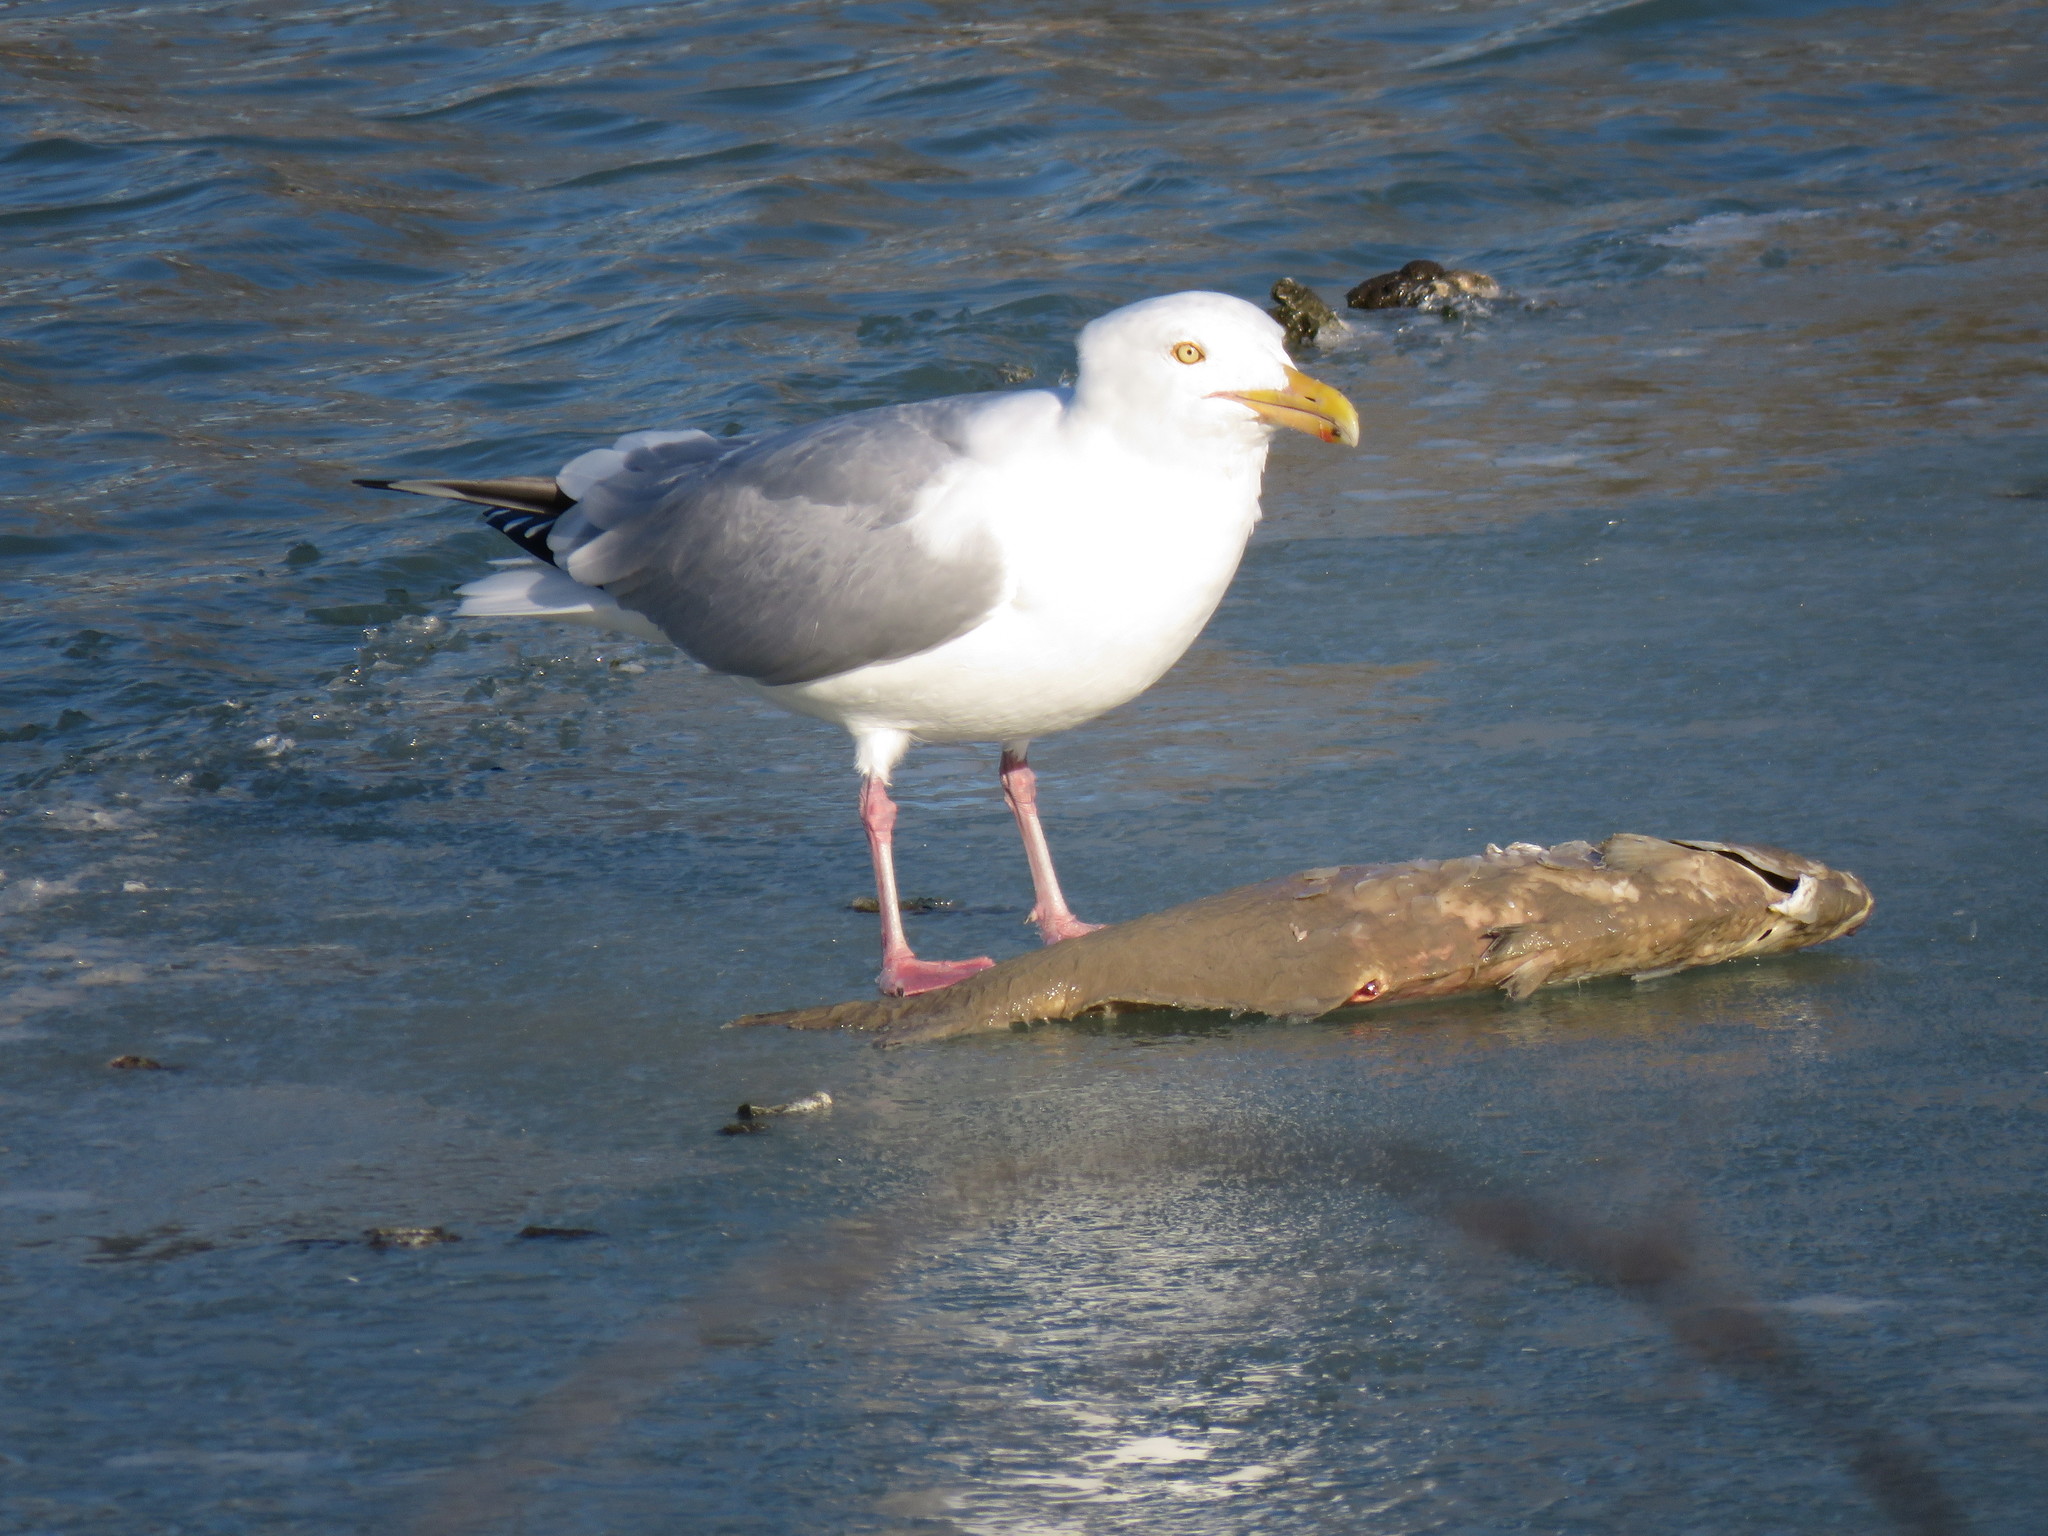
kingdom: Animalia
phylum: Chordata
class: Aves
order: Charadriiformes
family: Laridae
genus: Larus
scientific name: Larus argentatus
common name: Herring gull
